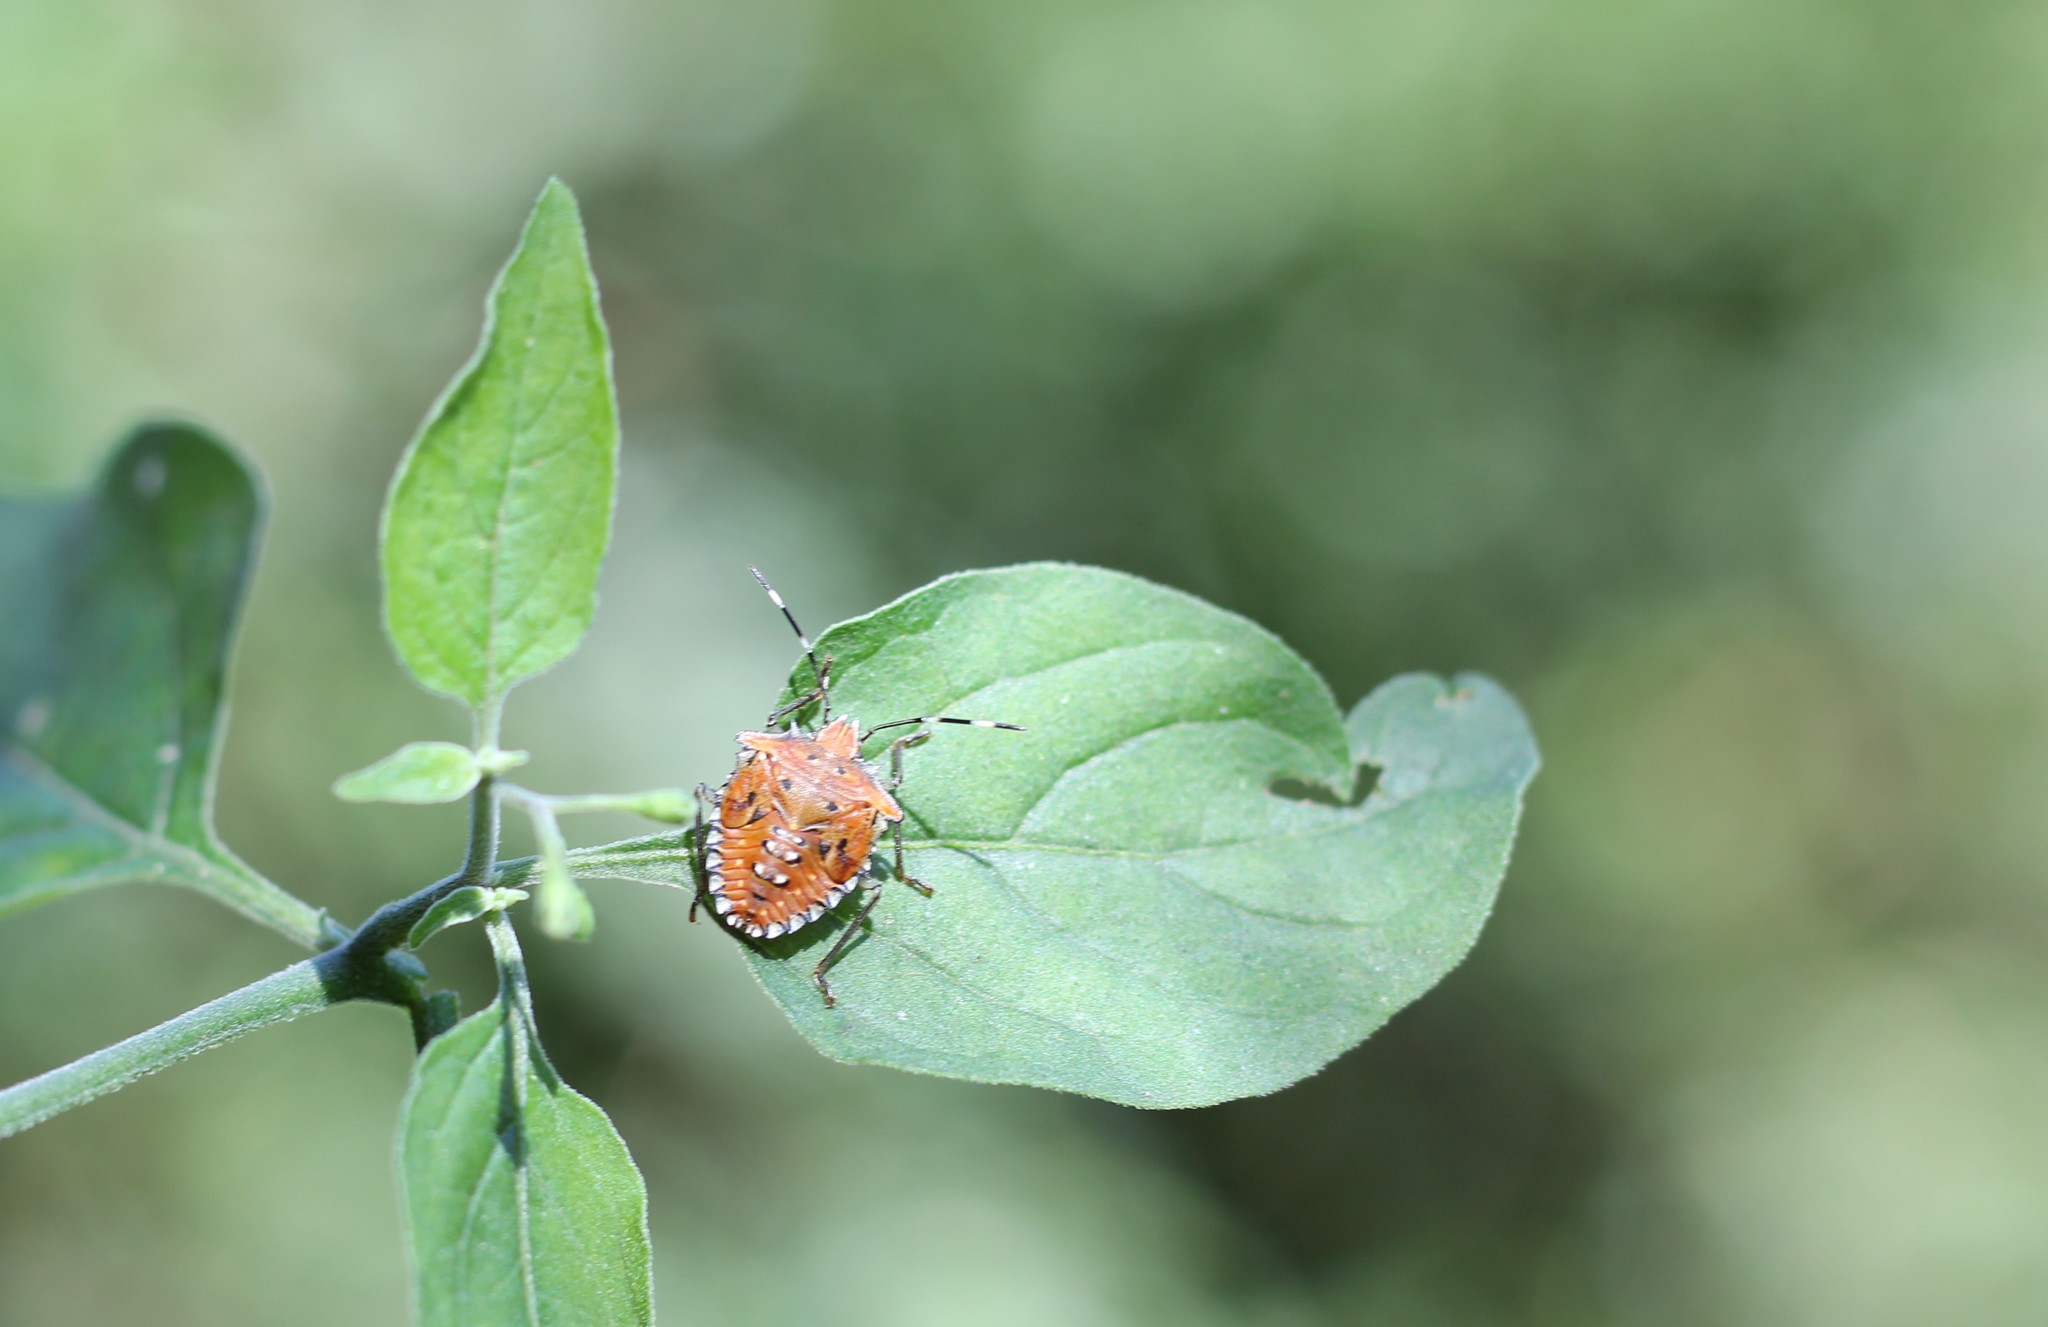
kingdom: Animalia
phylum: Arthropoda
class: Insecta
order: Hemiptera
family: Pentatomidae
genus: Arvelius
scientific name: Arvelius albopunctatus
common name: Tomato stink bug
